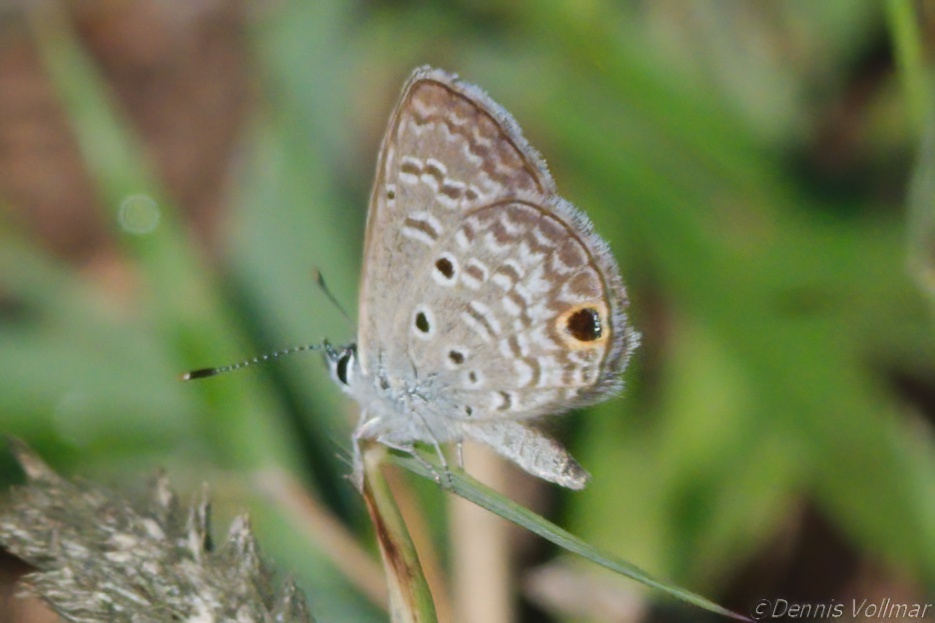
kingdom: Animalia
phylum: Arthropoda
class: Insecta
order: Lepidoptera
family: Lycaenidae
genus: Hemiargus
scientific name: Hemiargus ceraunus
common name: Ceraunus blue
